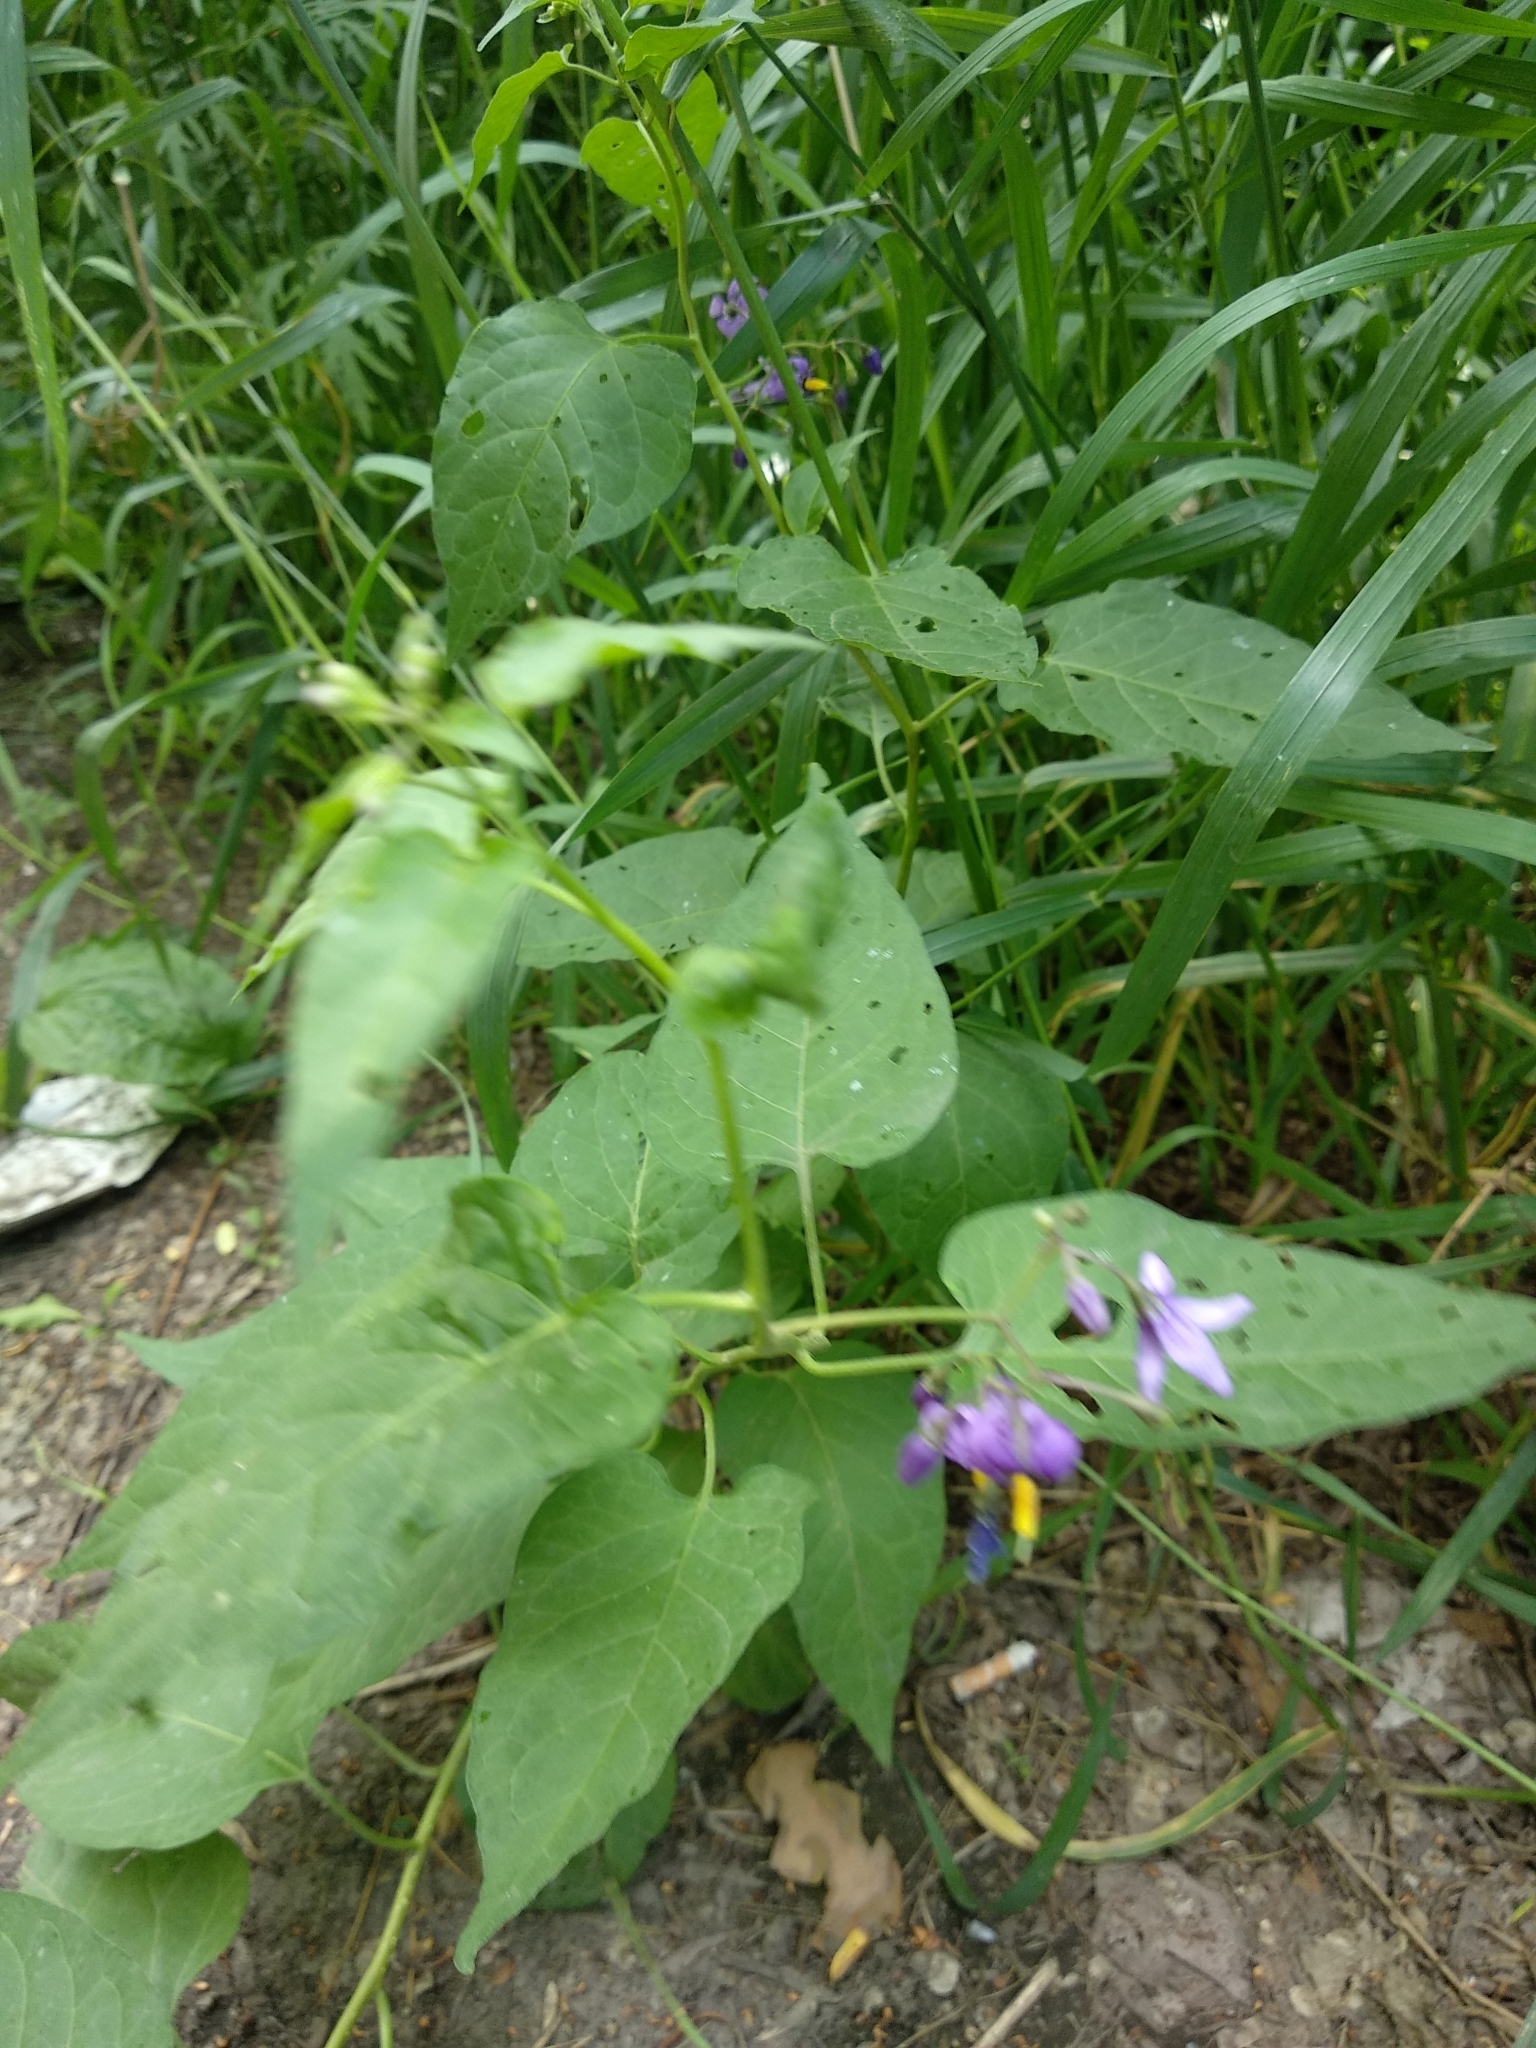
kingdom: Plantae
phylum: Tracheophyta
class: Magnoliopsida
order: Solanales
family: Solanaceae
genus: Solanum
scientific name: Solanum dulcamara
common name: Climbing nightshade
